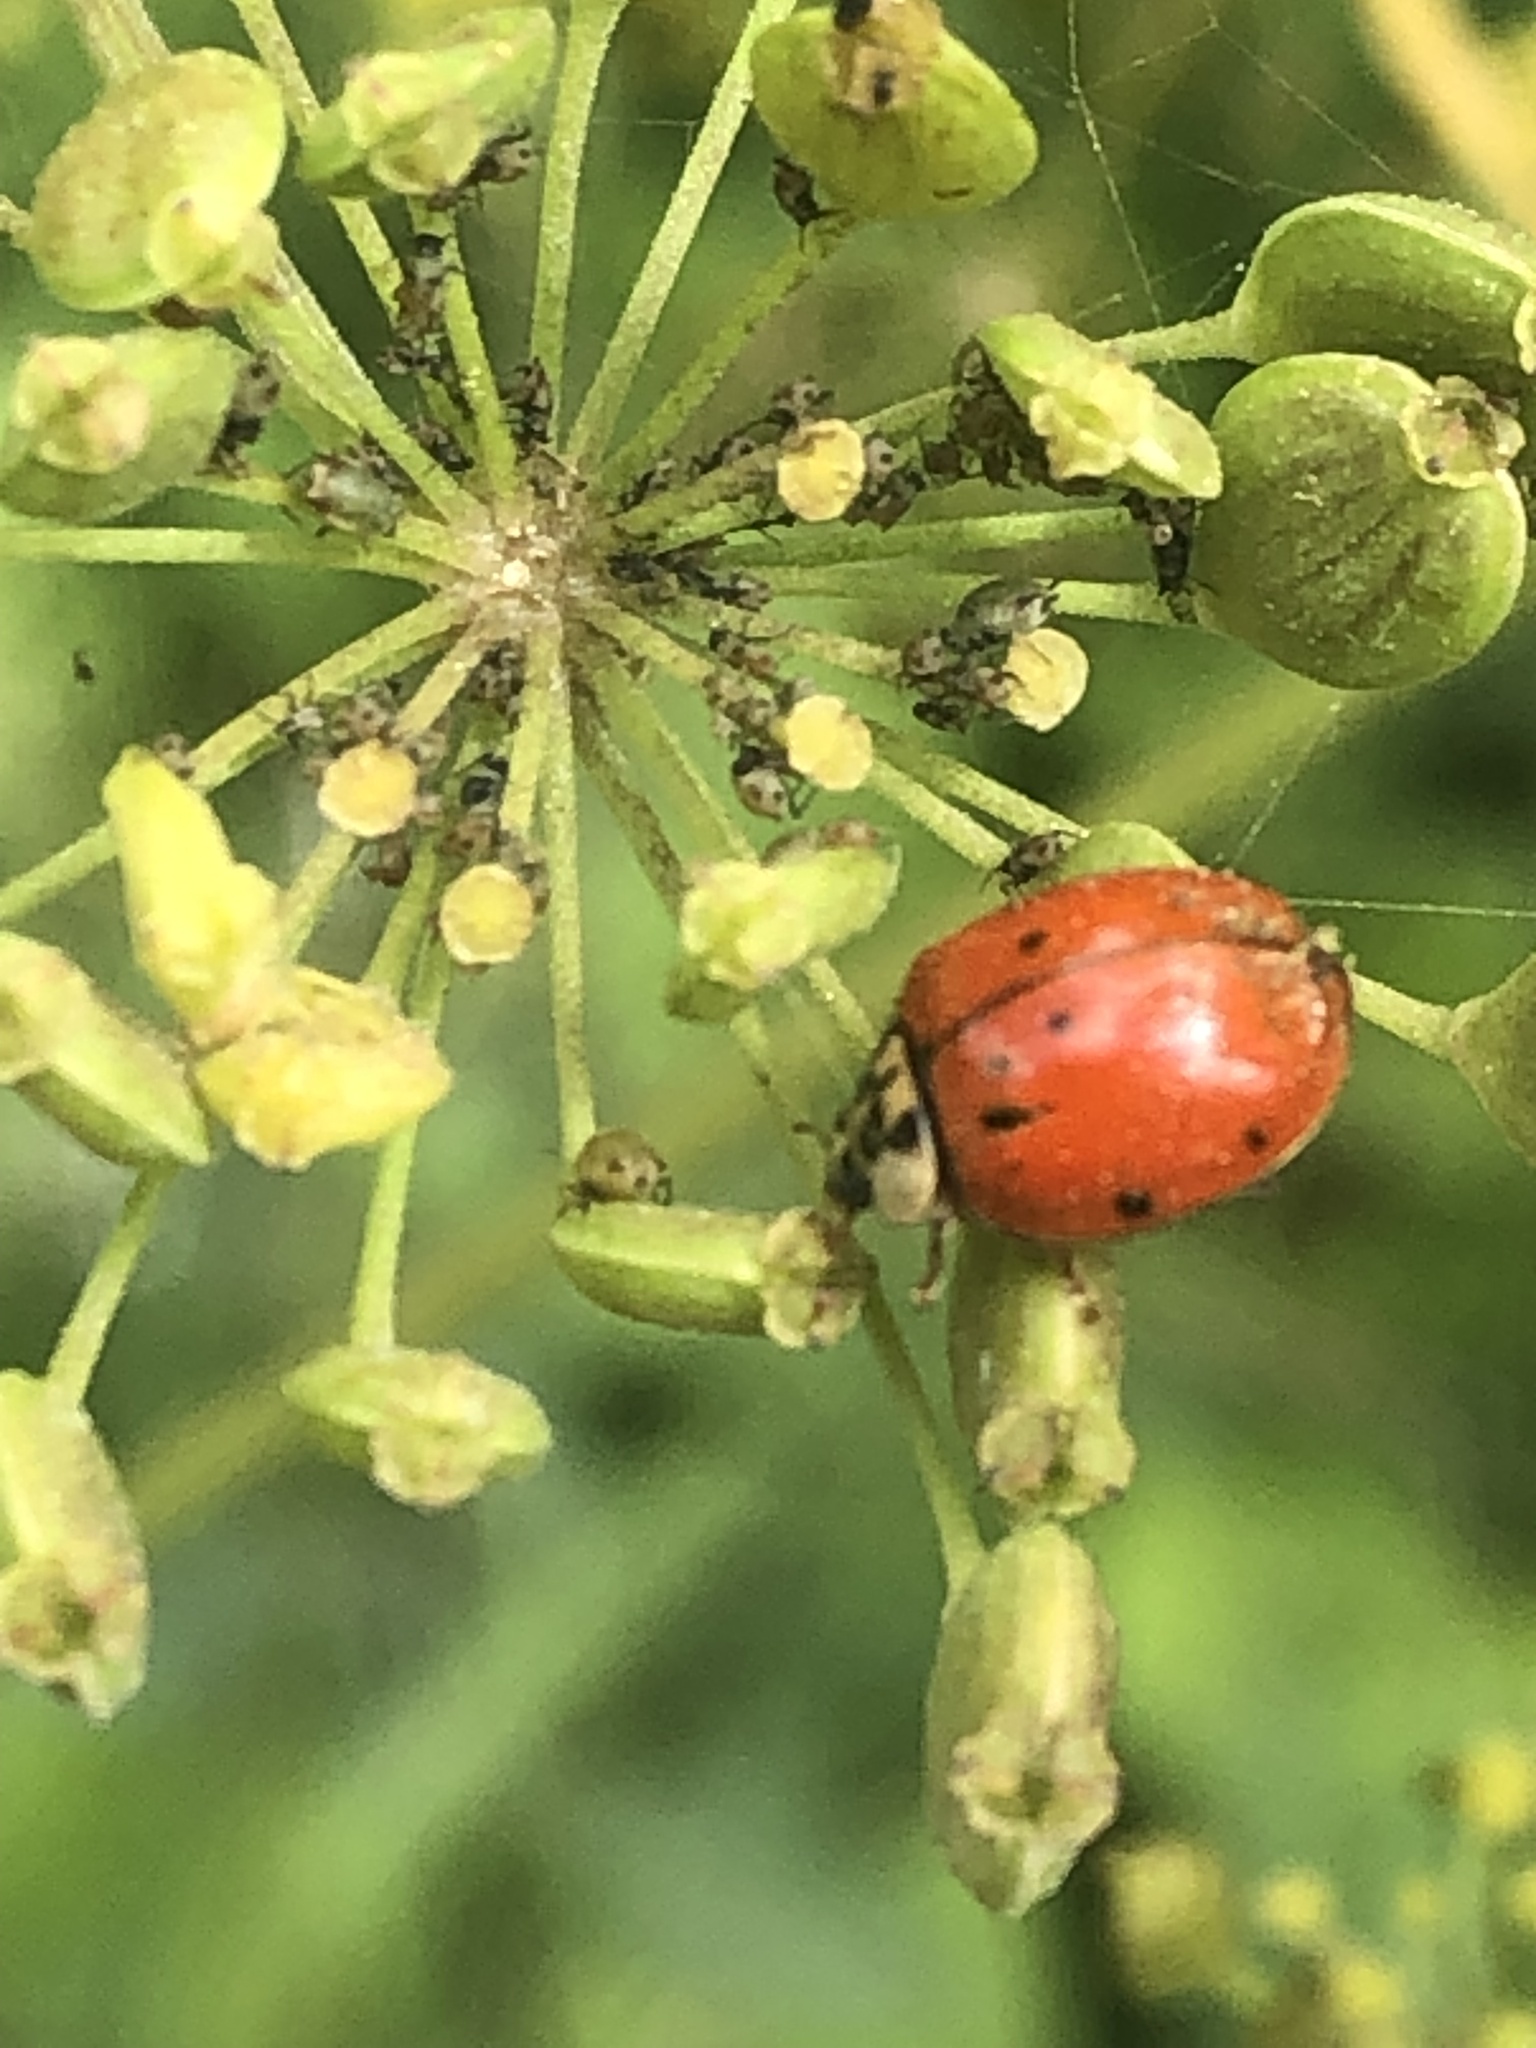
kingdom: Animalia
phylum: Arthropoda
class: Insecta
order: Coleoptera
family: Coccinellidae
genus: Harmonia
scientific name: Harmonia axyridis
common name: Harlequin ladybird
